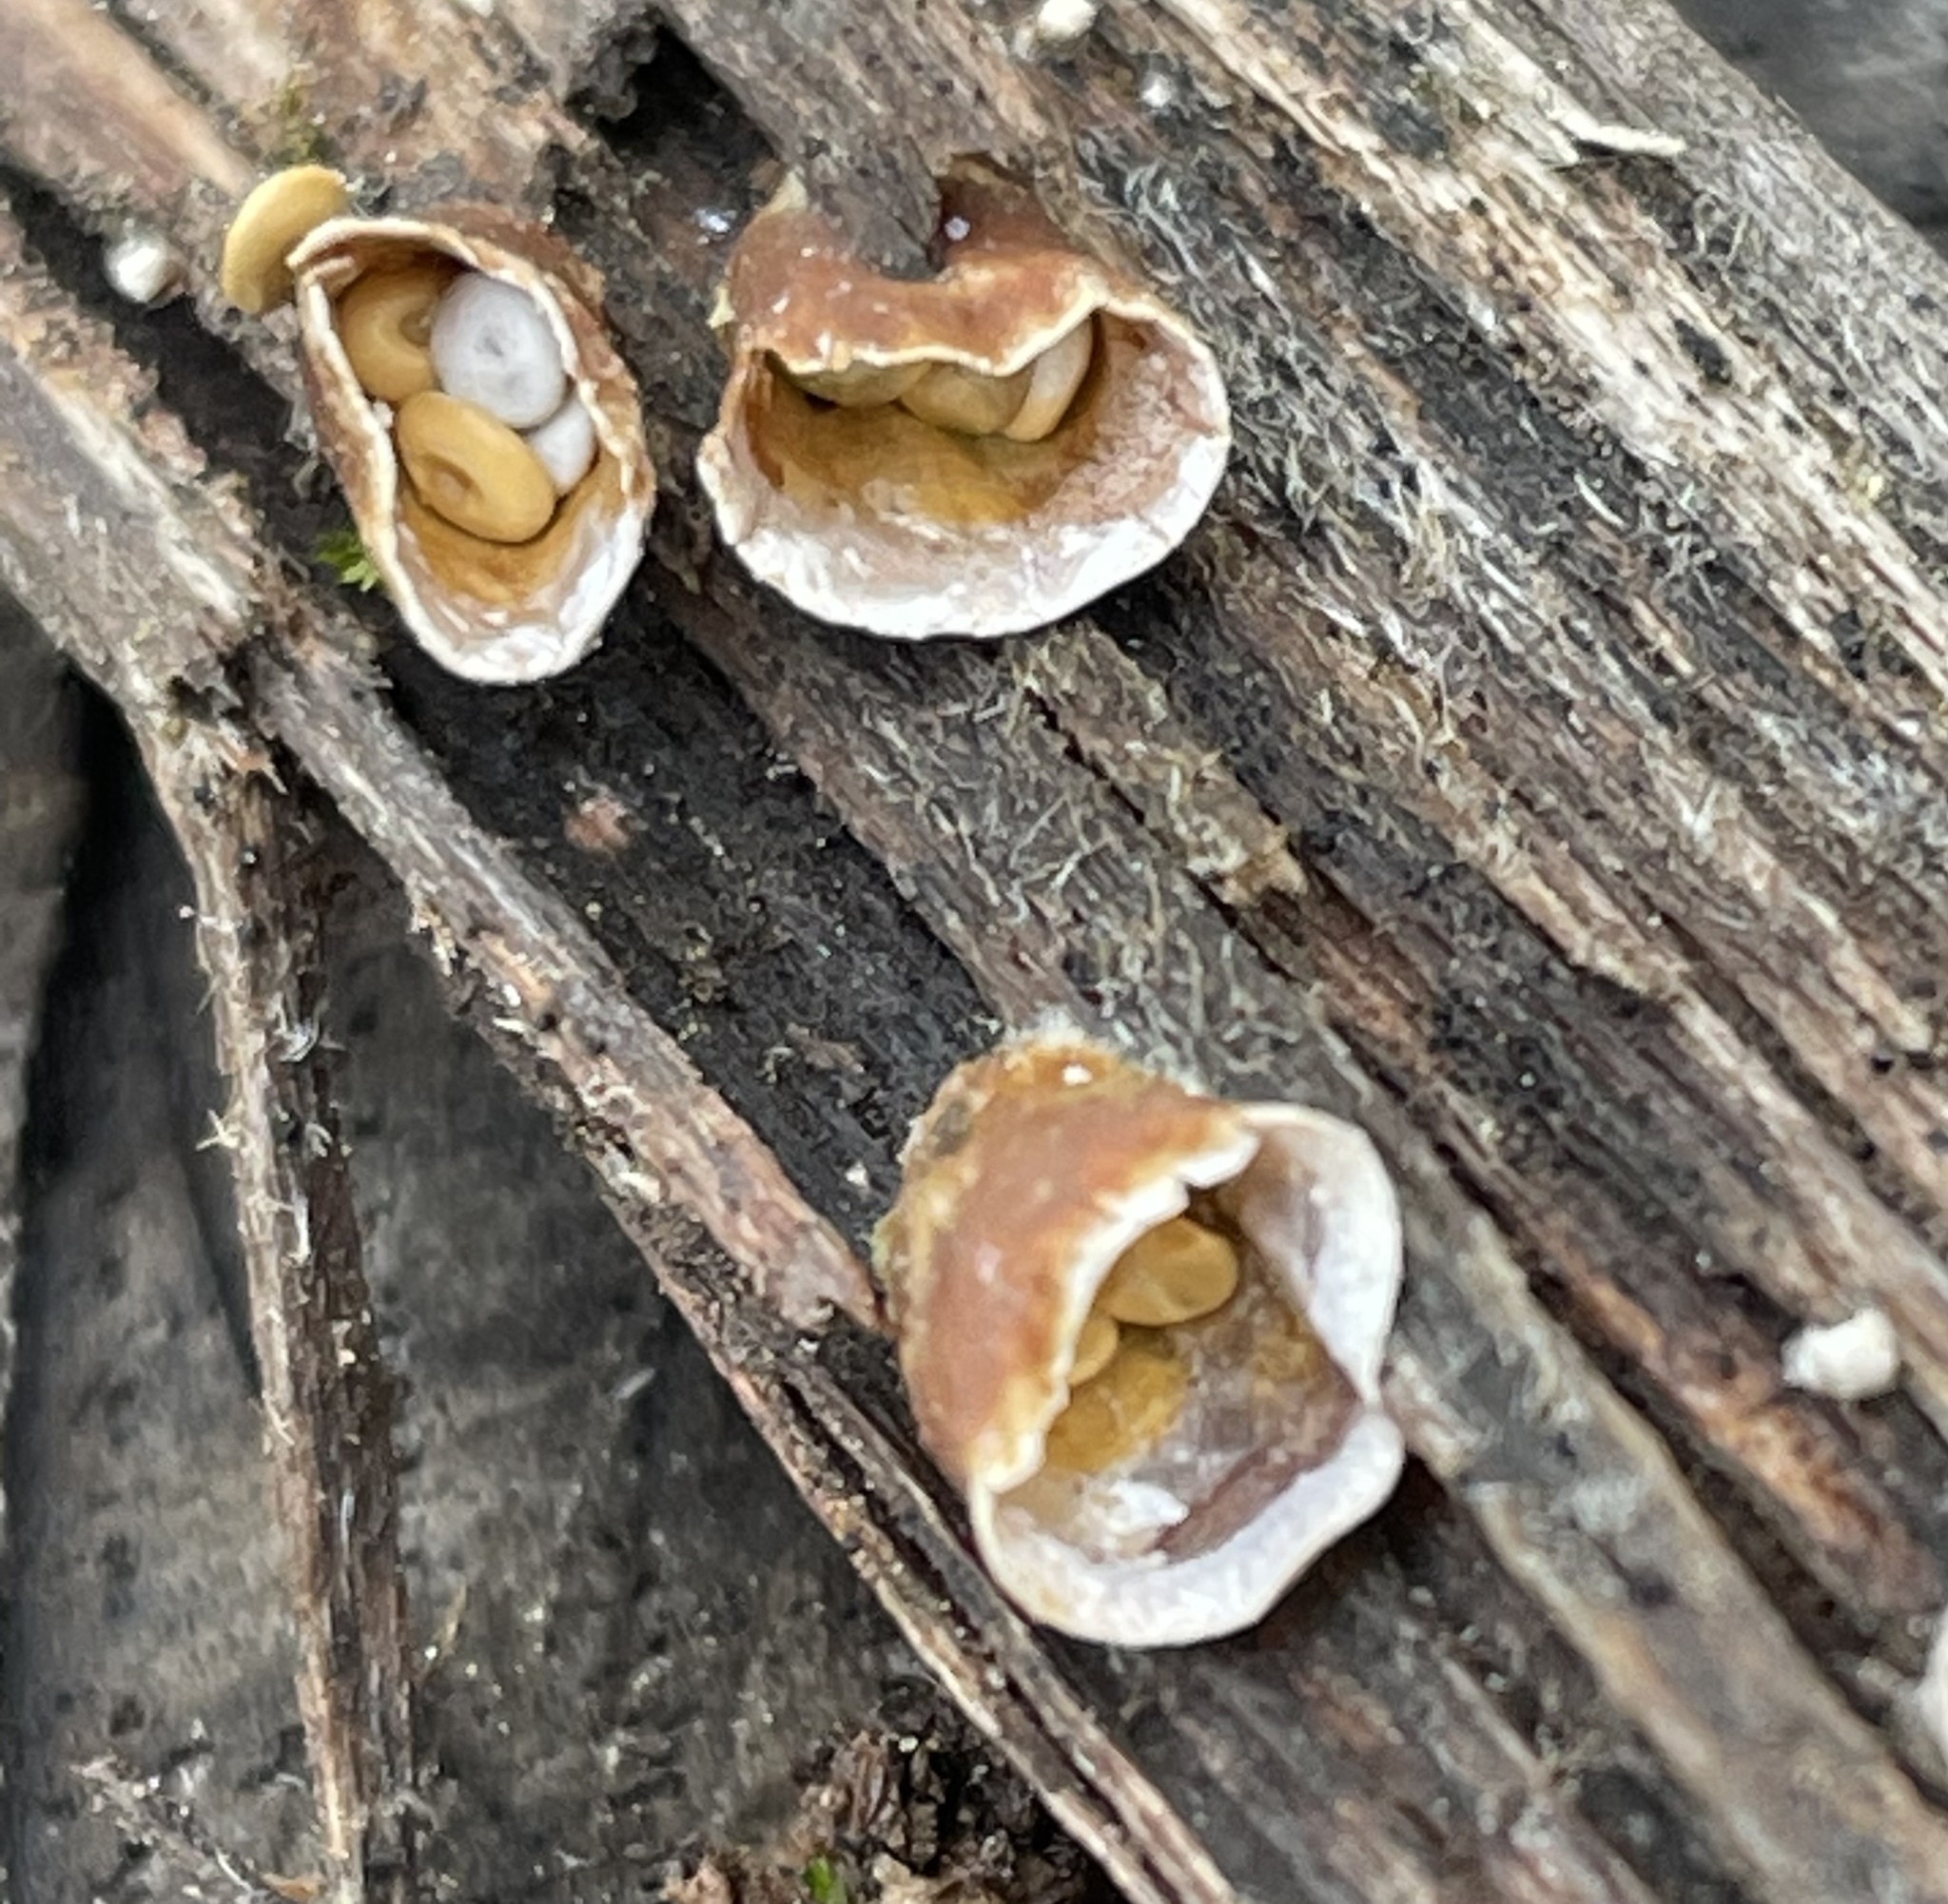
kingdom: Fungi
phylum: Basidiomycota
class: Agaricomycetes
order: Agaricales
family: Nidulariaceae
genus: Crucibulum
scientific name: Crucibulum laeve
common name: Common bird's nest
